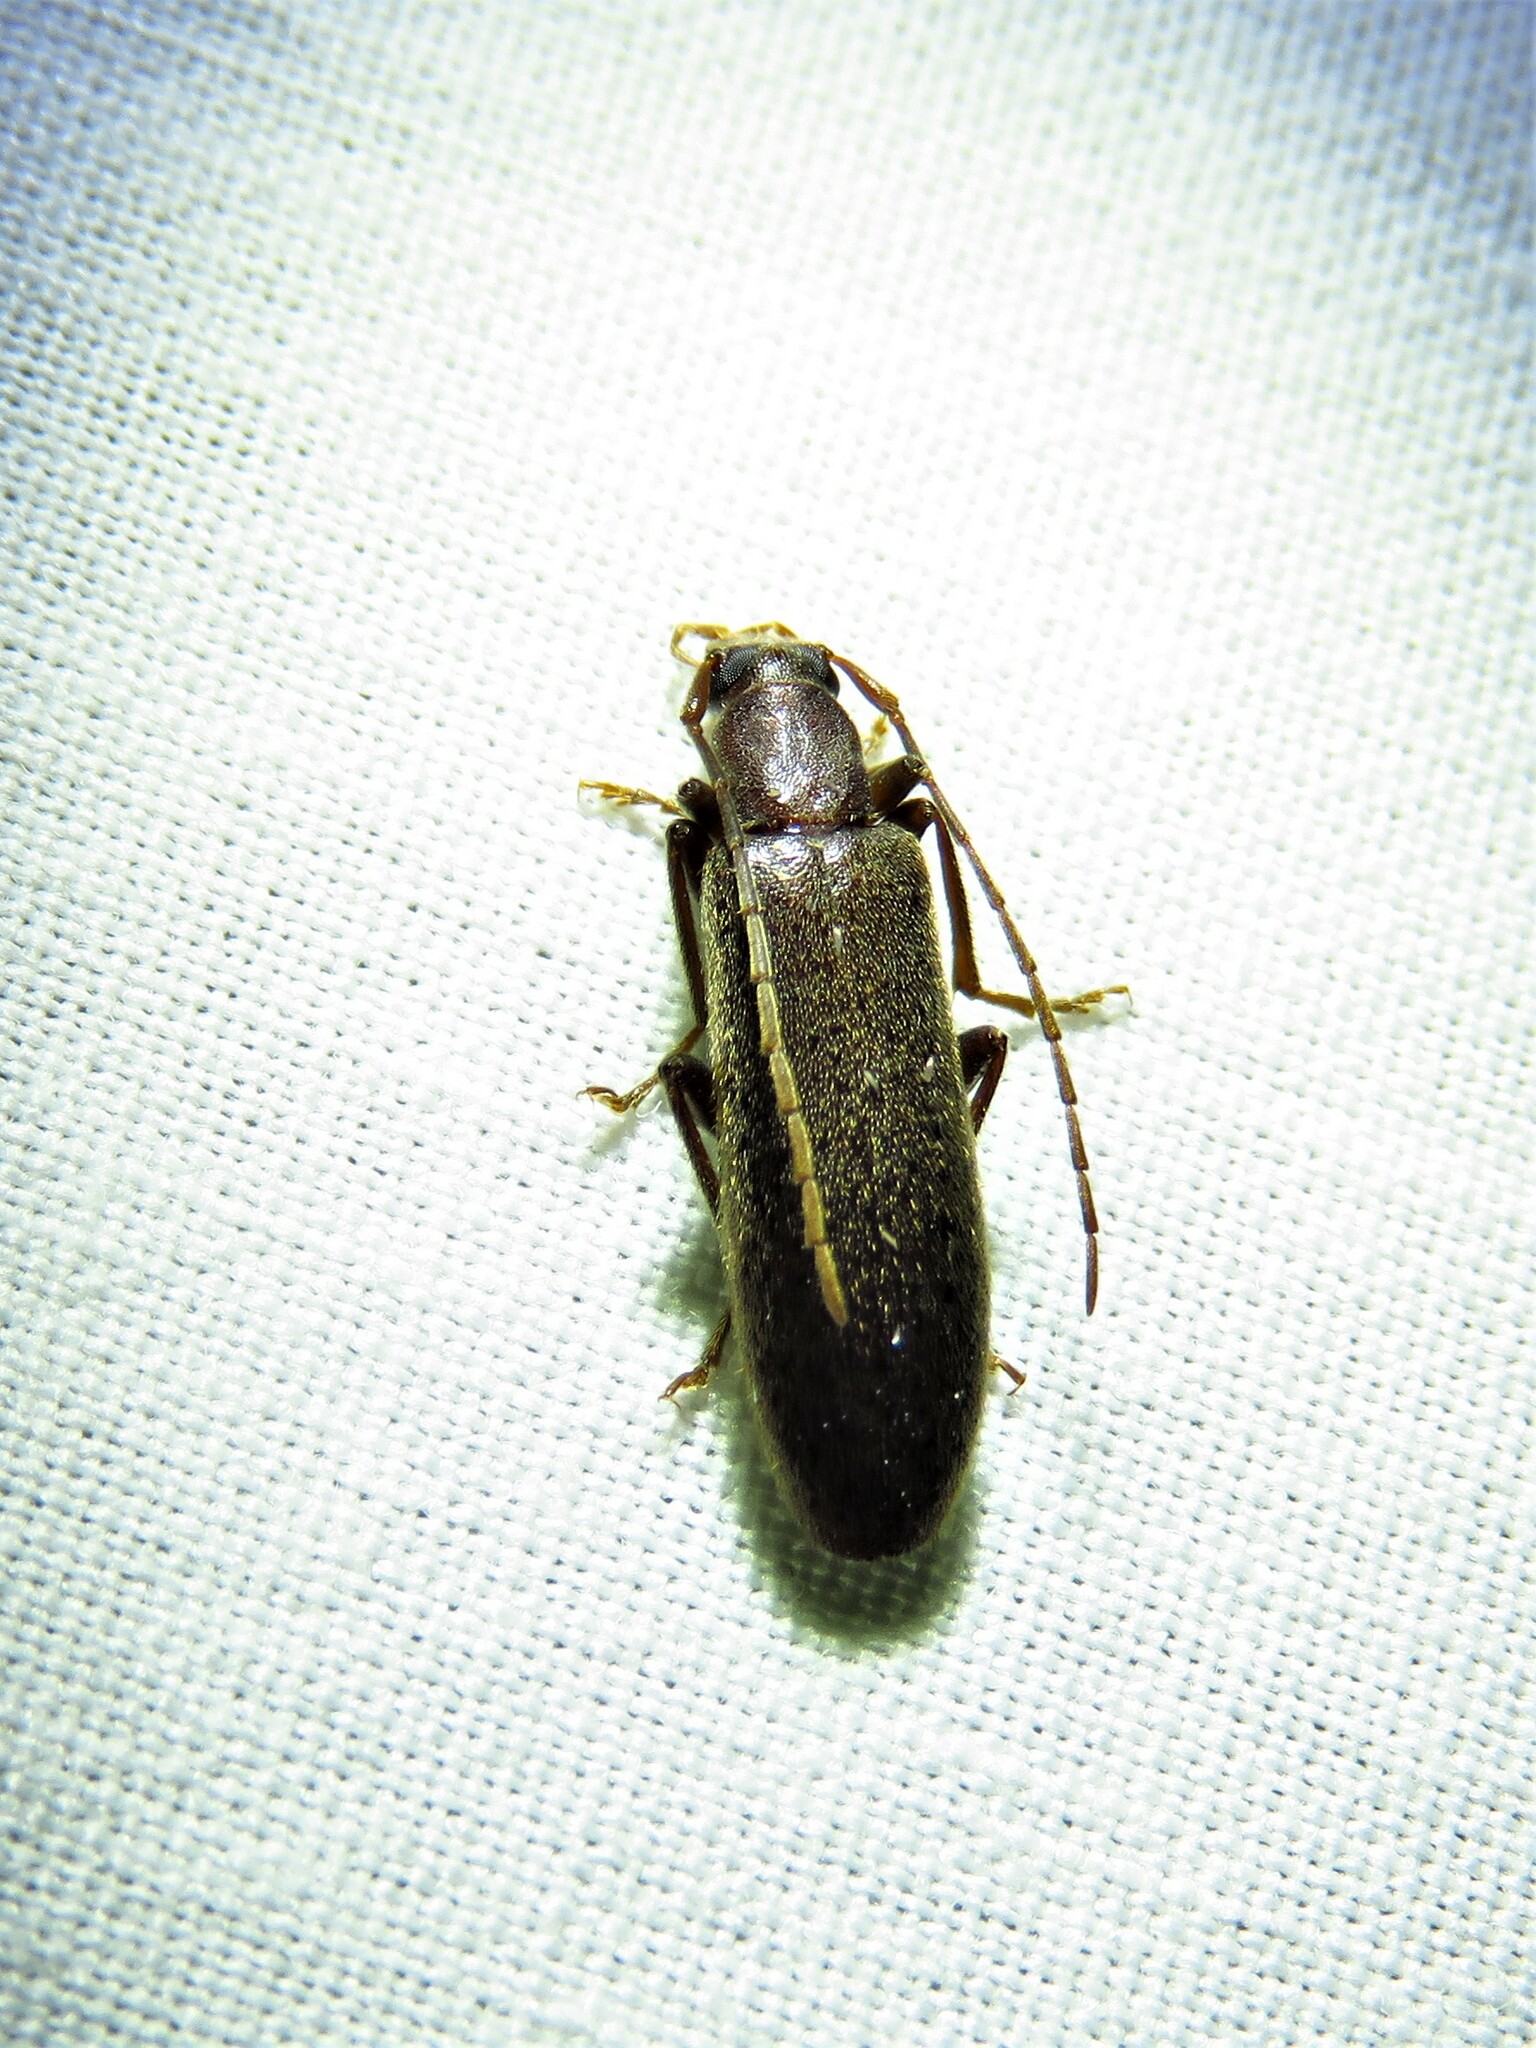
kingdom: Animalia
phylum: Arthropoda
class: Insecta
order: Coleoptera
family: Oedemeridae
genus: Sparedrus
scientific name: Sparedrus aspersus
